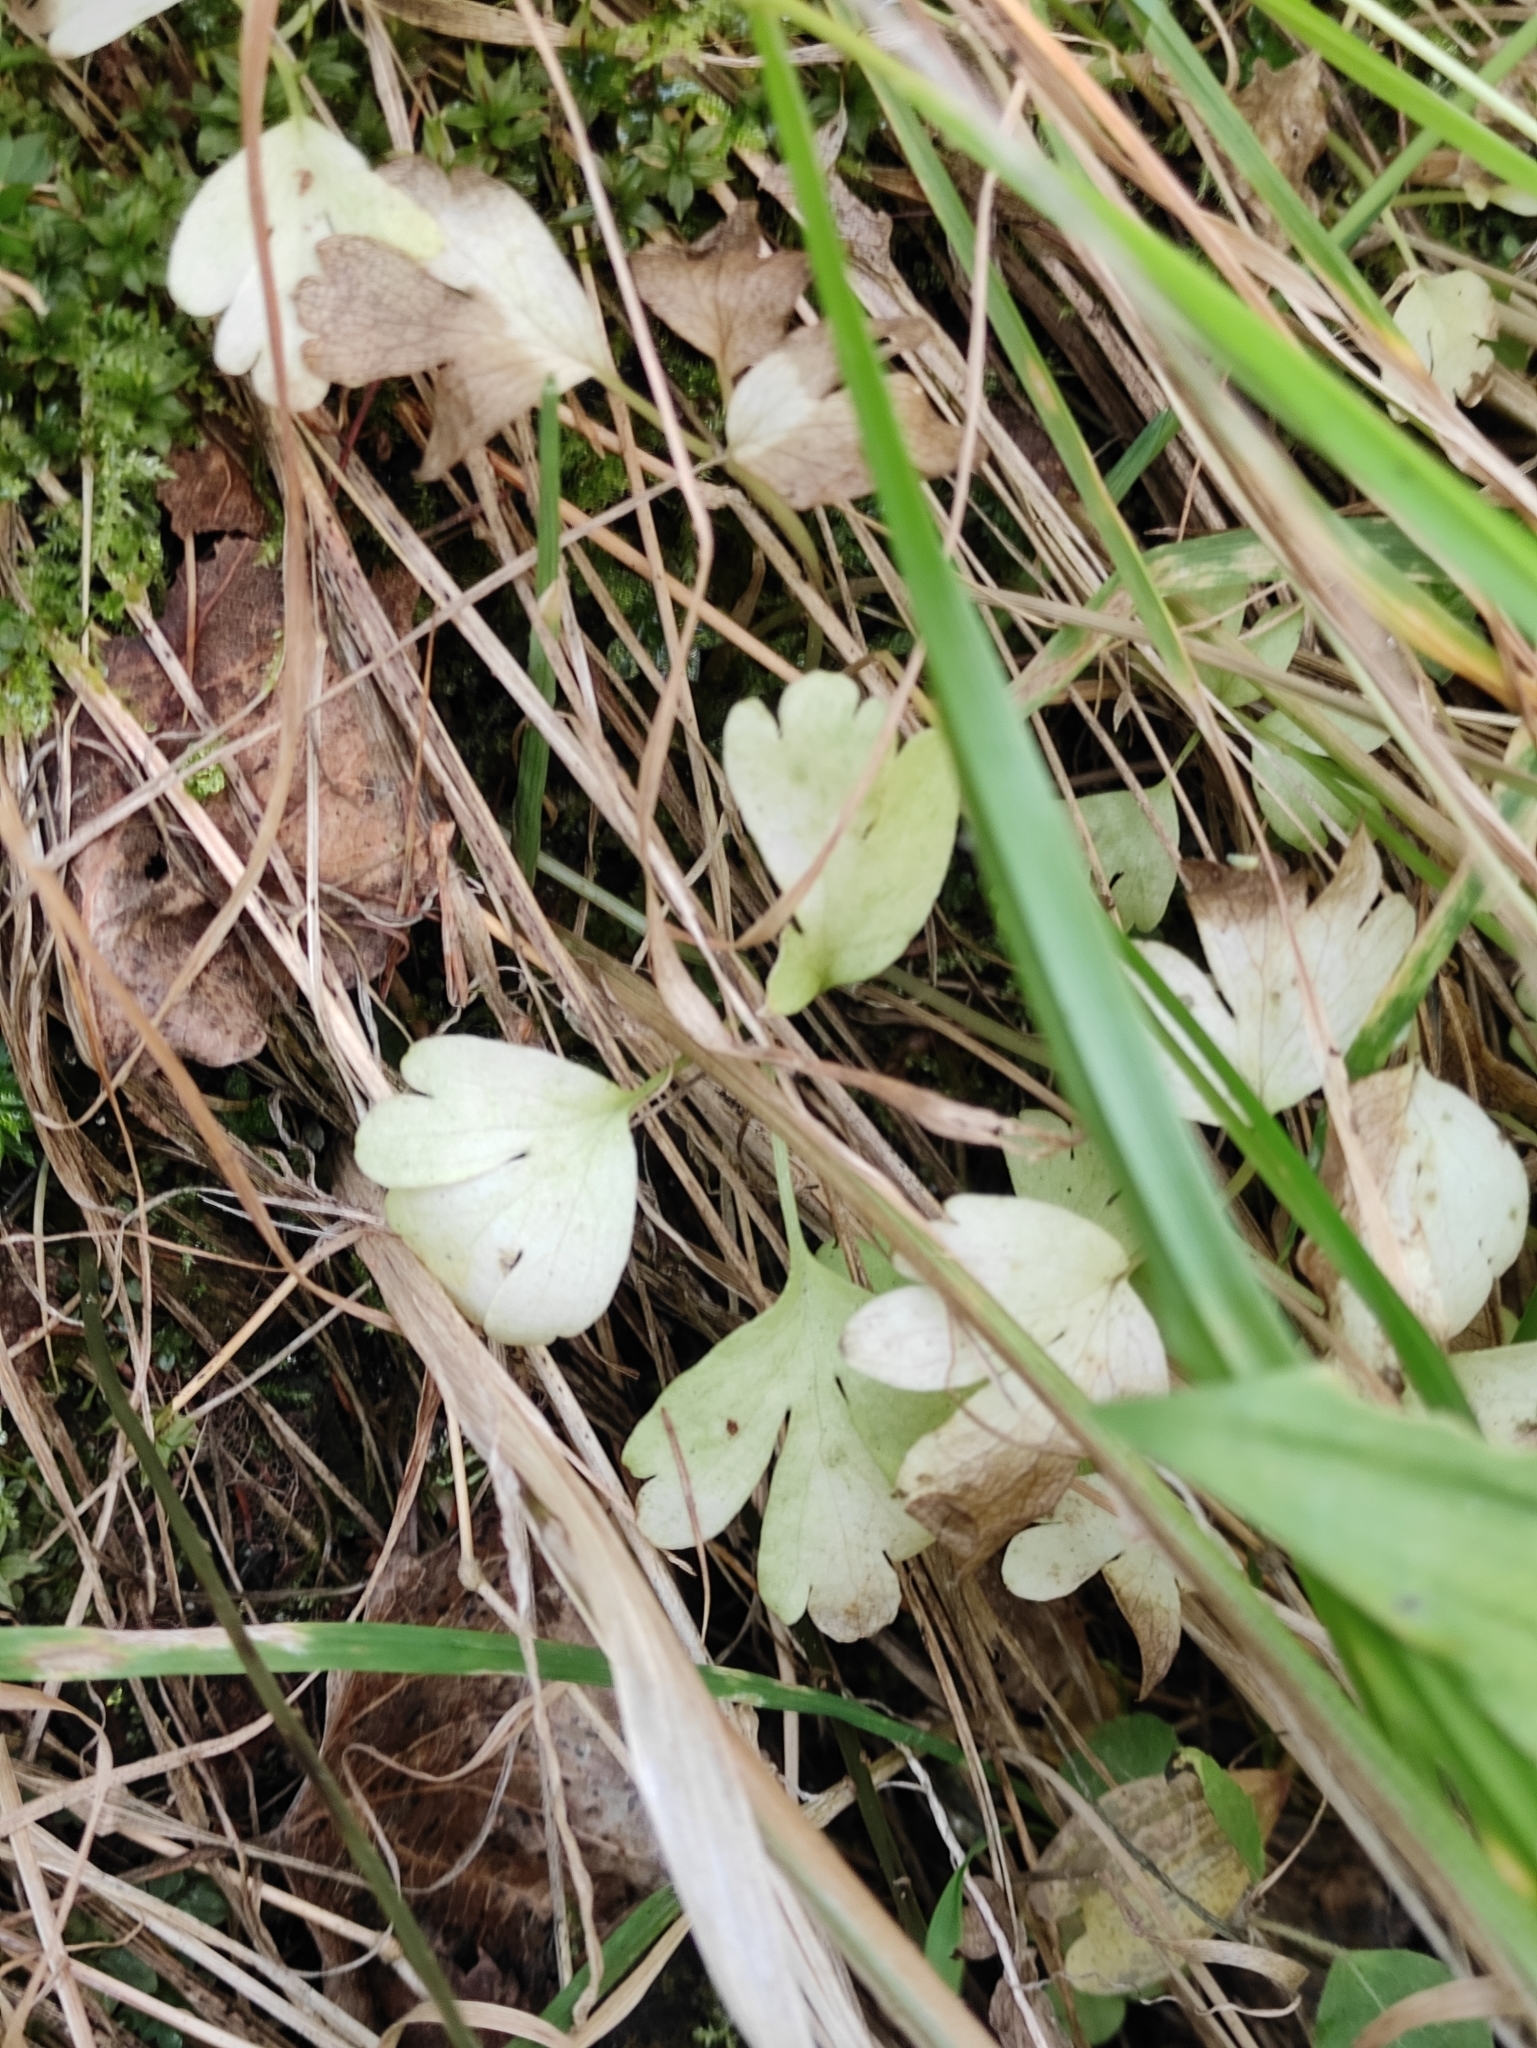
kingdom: Plantae
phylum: Tracheophyta
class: Magnoliopsida
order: Dipsacales
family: Viburnaceae
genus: Adoxa
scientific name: Adoxa moschatellina
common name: Moschatel
